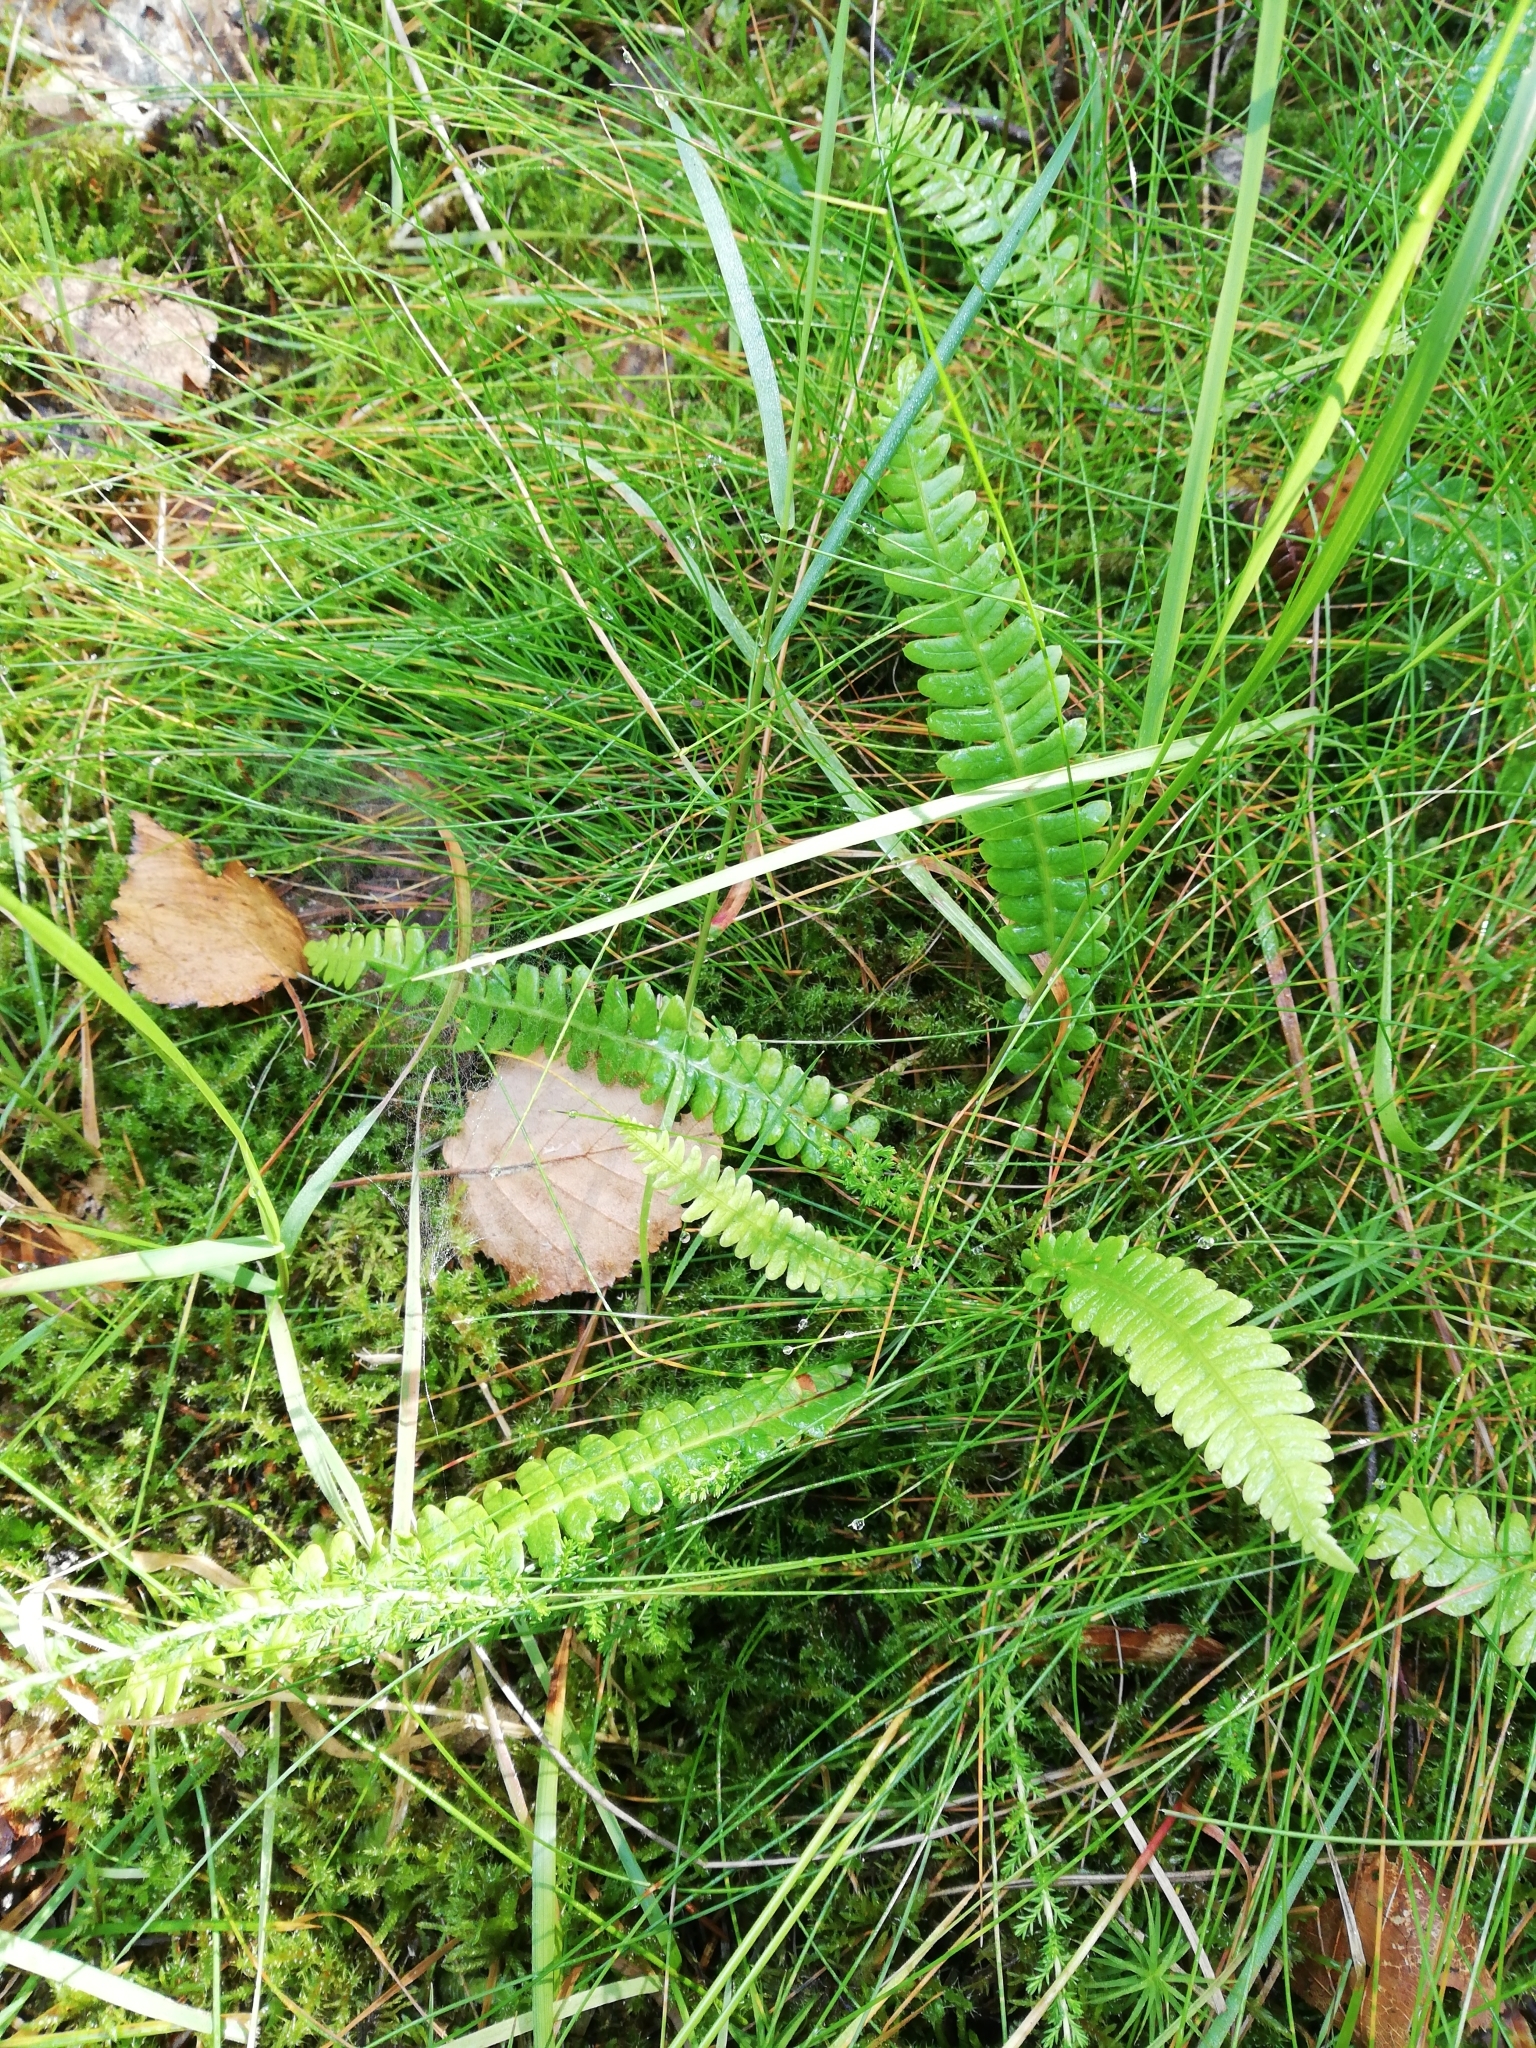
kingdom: Plantae
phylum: Tracheophyta
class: Polypodiopsida
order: Polypodiales
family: Blechnaceae
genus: Struthiopteris
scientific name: Struthiopteris spicant
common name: Deer fern
